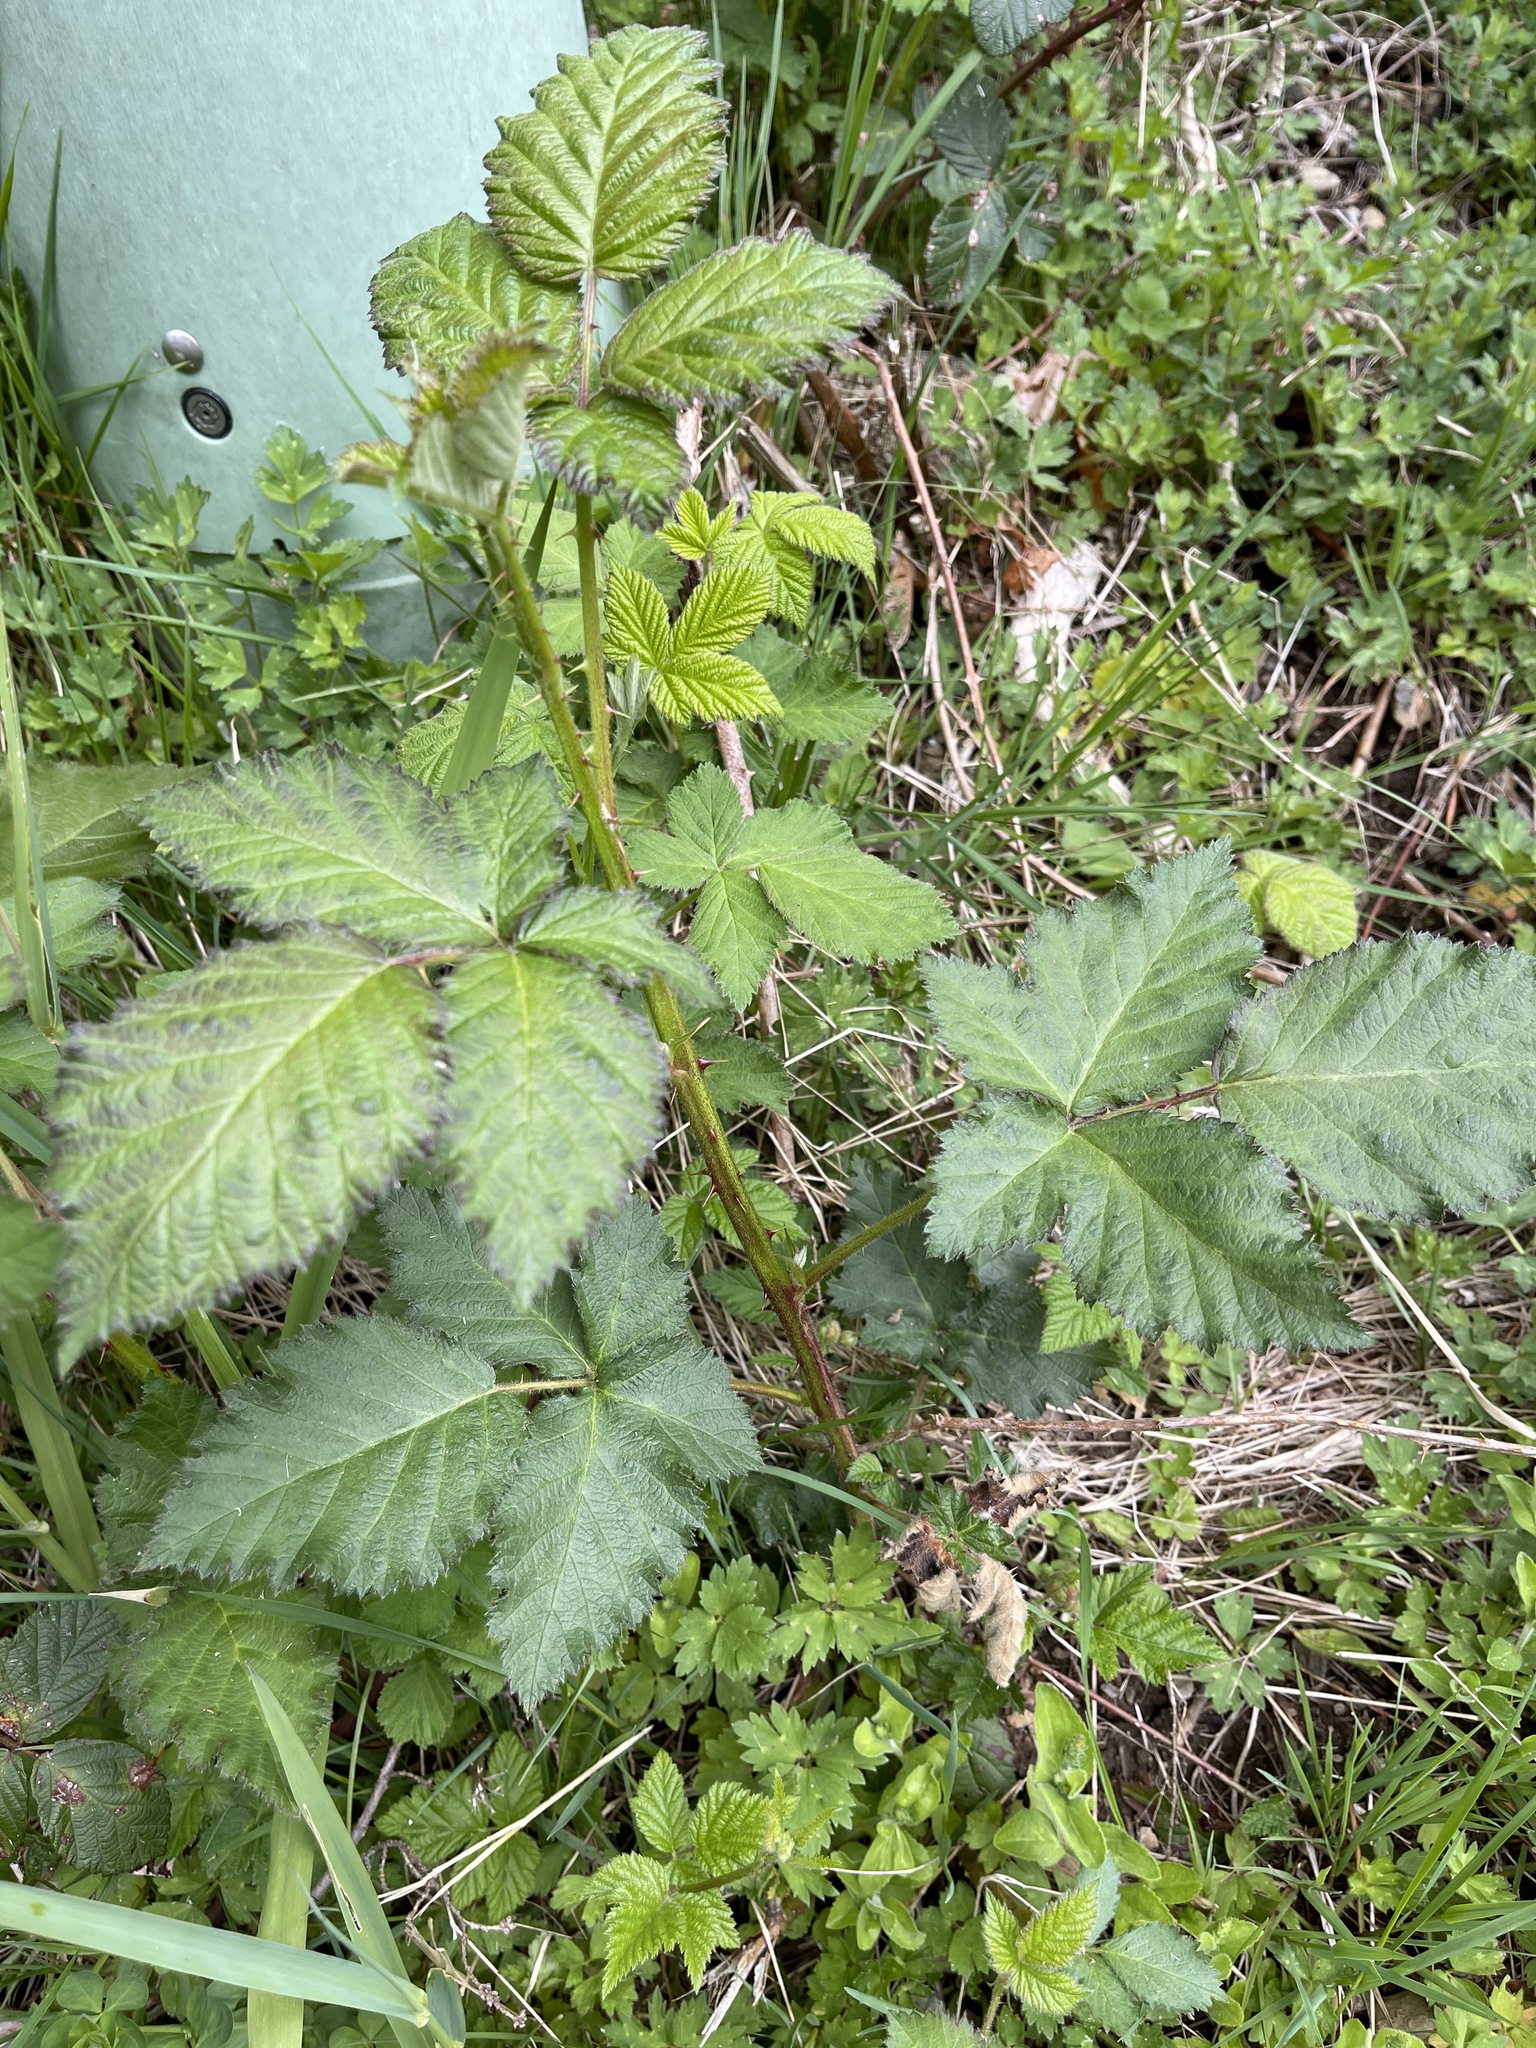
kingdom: Plantae
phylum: Tracheophyta
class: Magnoliopsida
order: Rosales
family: Rosaceae
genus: Rubus
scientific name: Rubus armeniacus
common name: Himalayan blackberry
